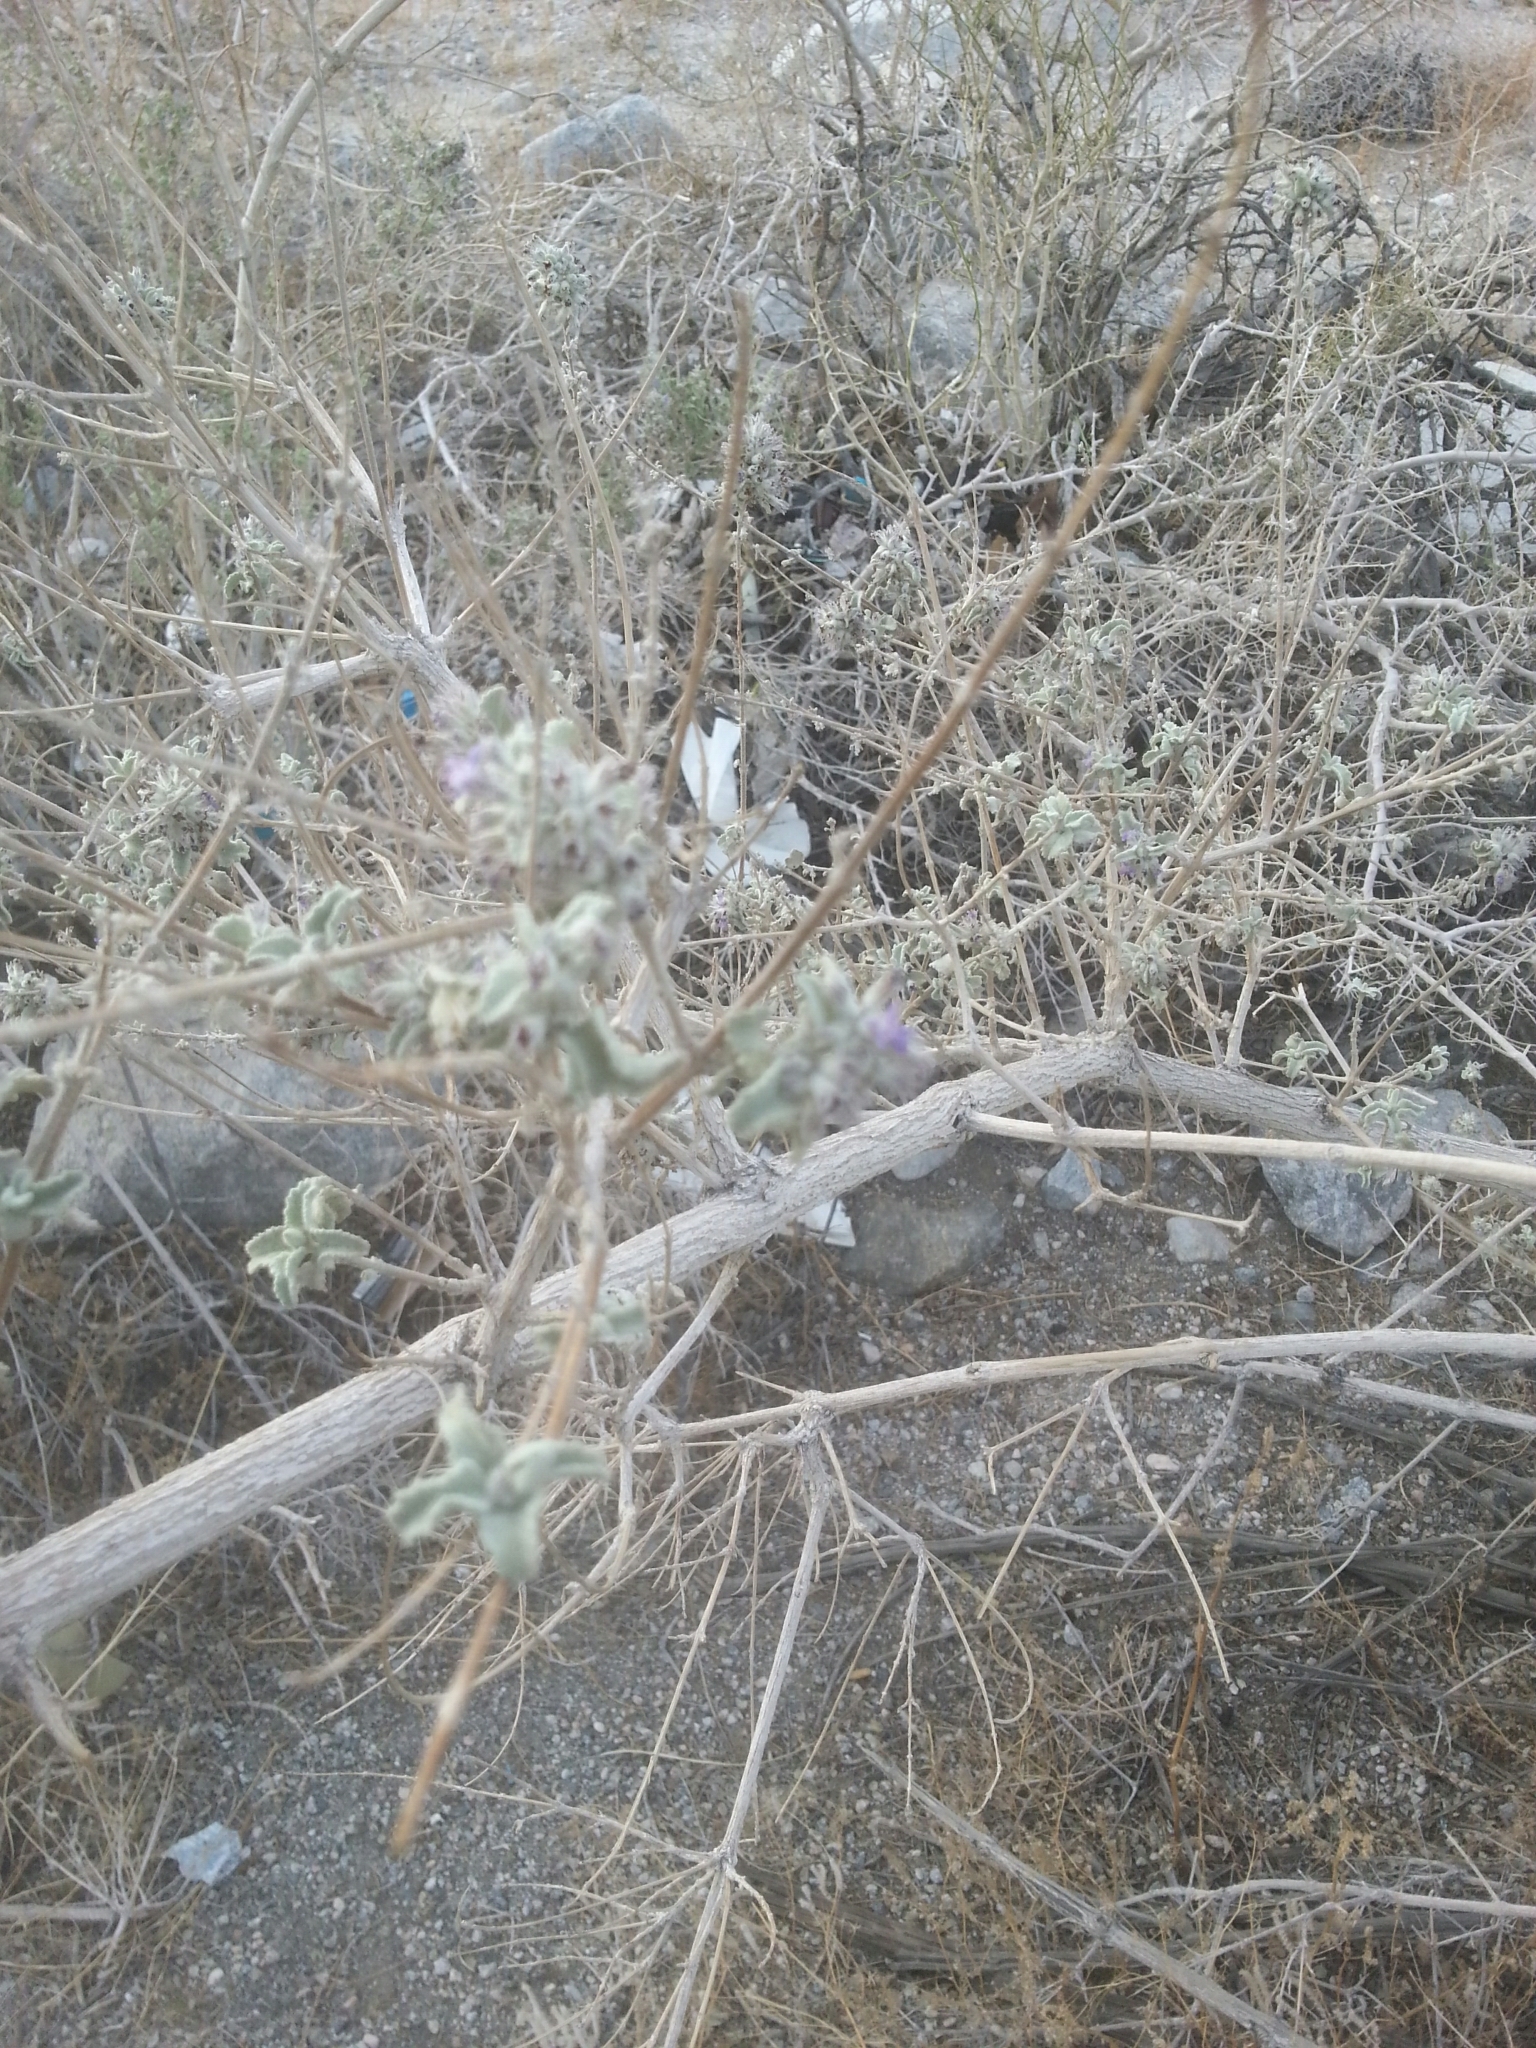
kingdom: Plantae
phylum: Tracheophyta
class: Magnoliopsida
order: Lamiales
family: Lamiaceae
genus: Condea
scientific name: Condea emoryi
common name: Chia
